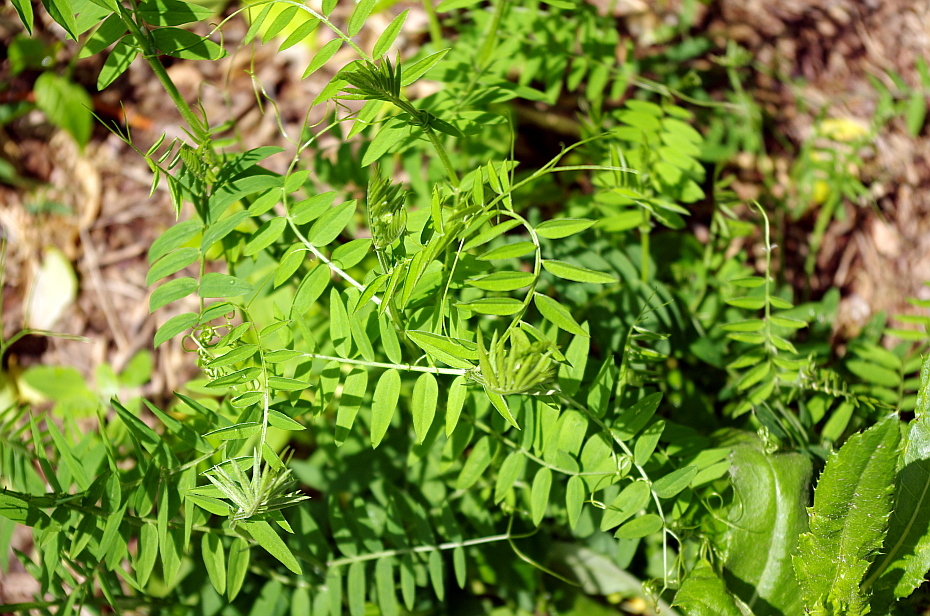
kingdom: Plantae
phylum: Tracheophyta
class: Magnoliopsida
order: Fabales
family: Fabaceae
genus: Vicia
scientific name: Vicia cracca
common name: Bird vetch
